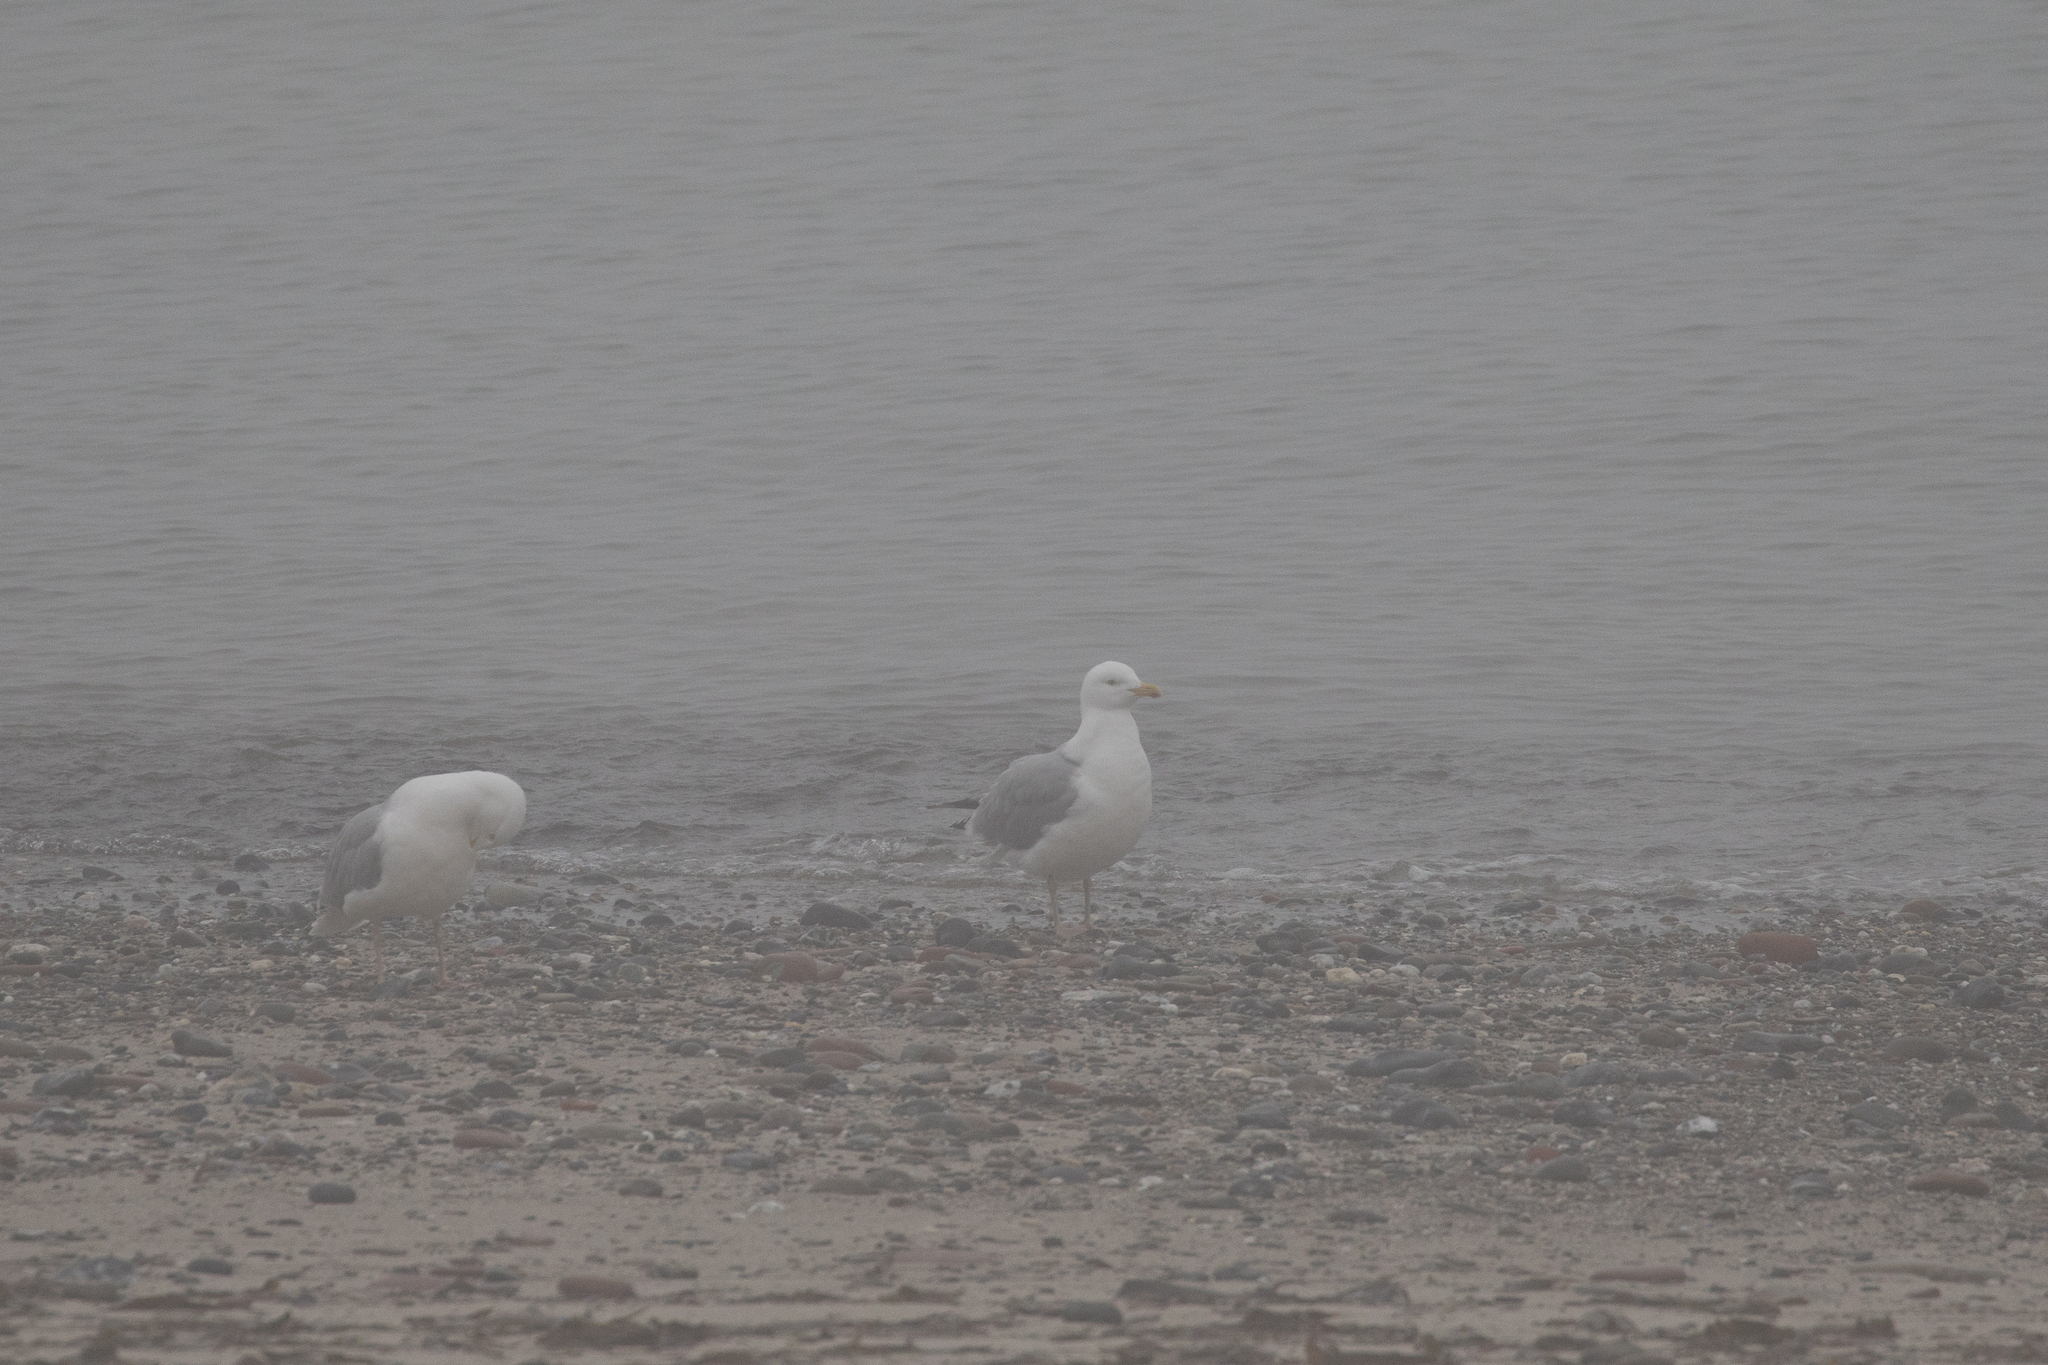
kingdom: Animalia
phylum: Chordata
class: Aves
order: Charadriiformes
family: Laridae
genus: Larus
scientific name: Larus argentatus
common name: Herring gull
